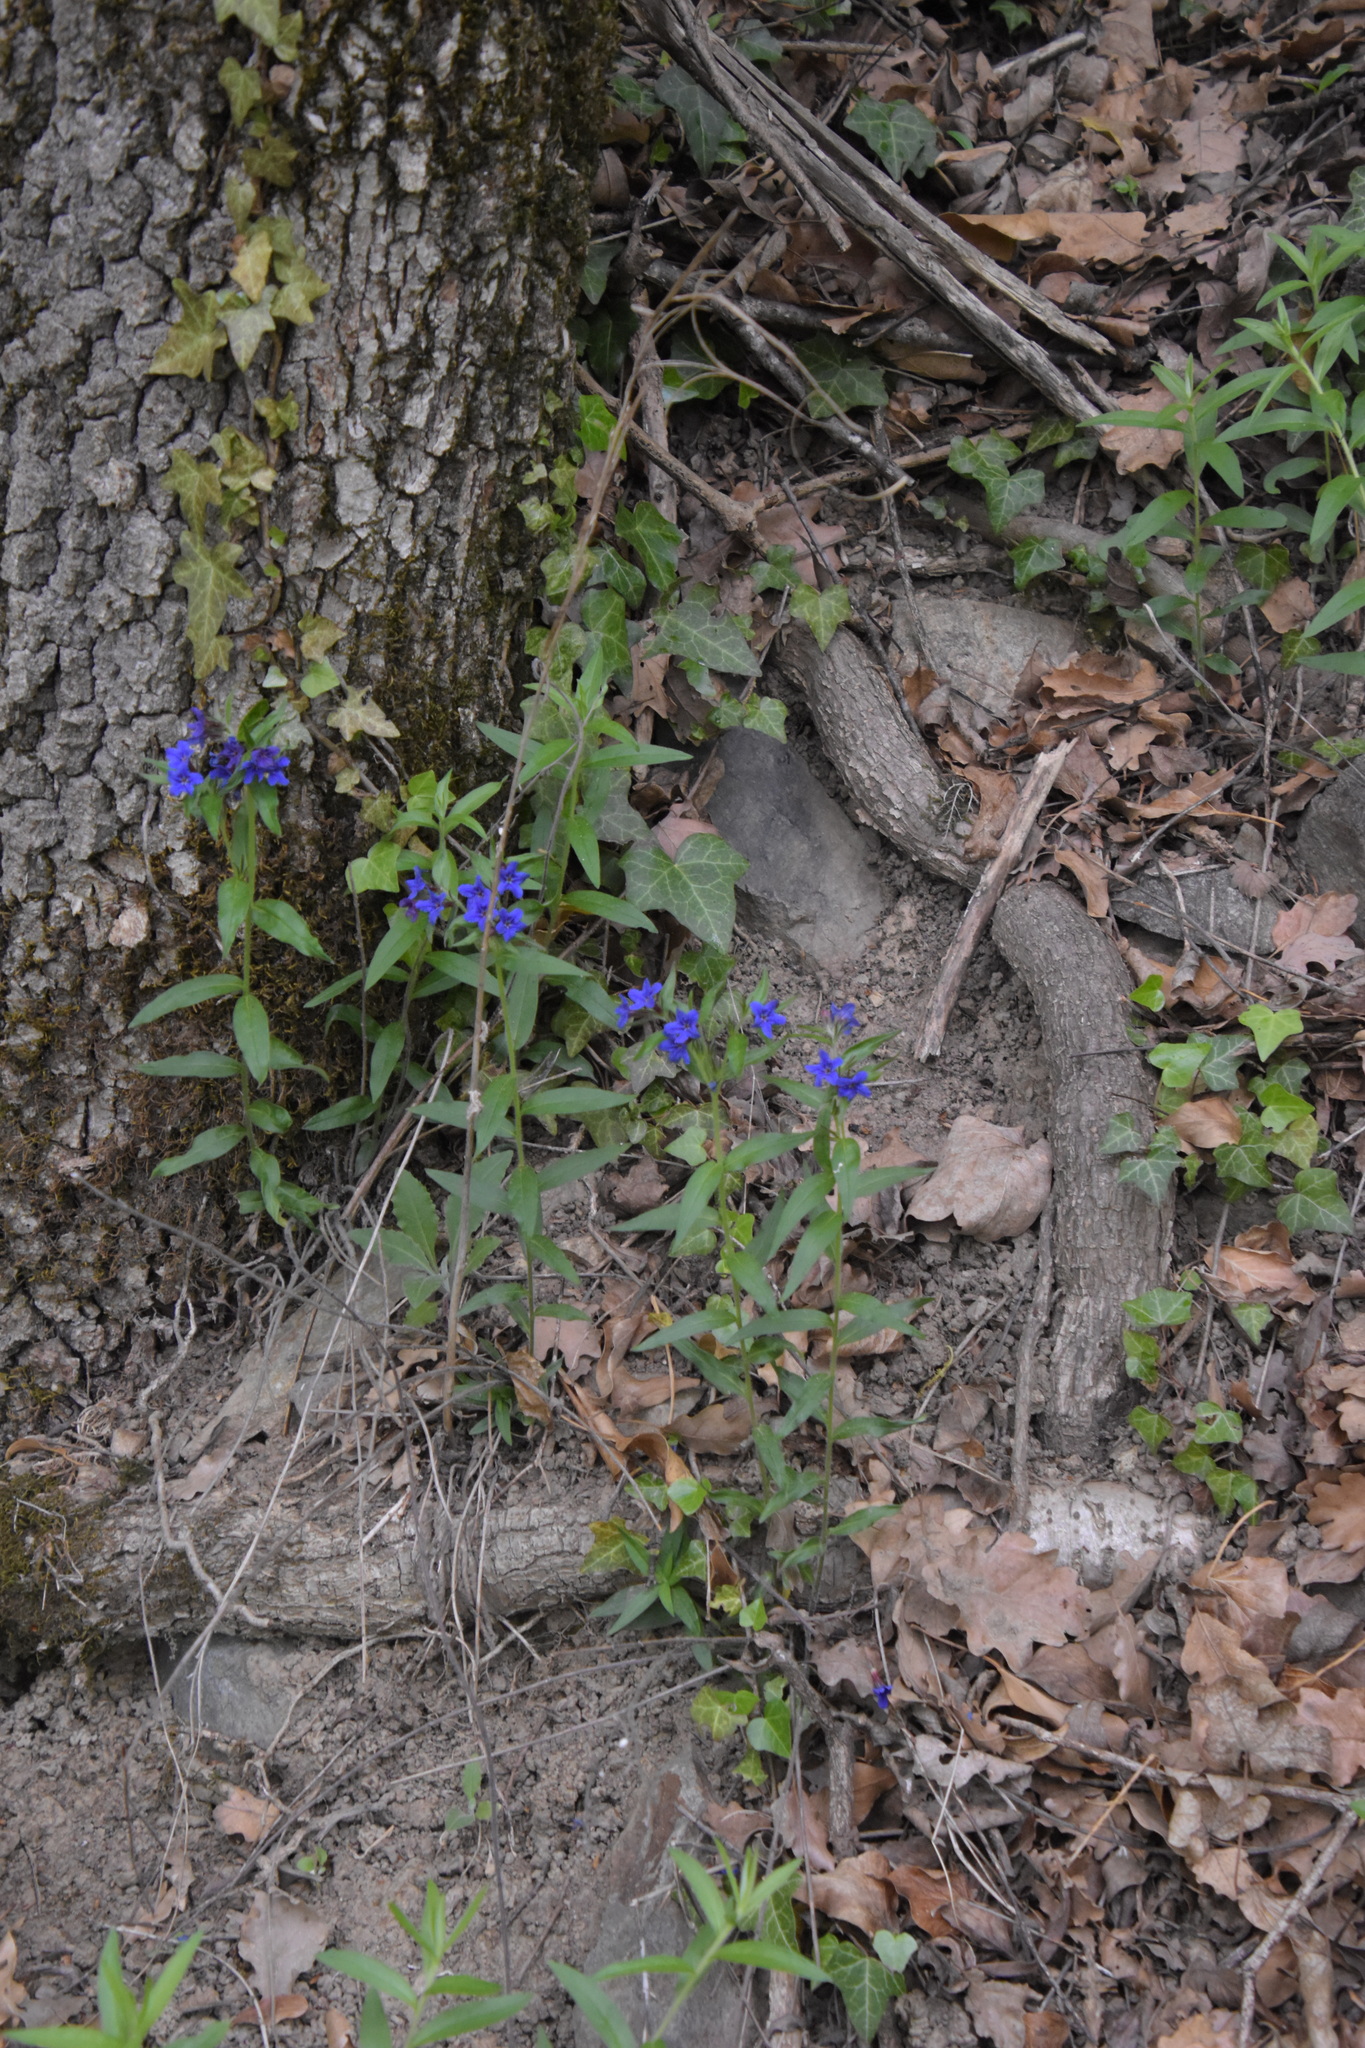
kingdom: Plantae
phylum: Tracheophyta
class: Magnoliopsida
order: Boraginales
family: Boraginaceae
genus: Aegonychon
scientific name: Aegonychon purpurocaeruleum
